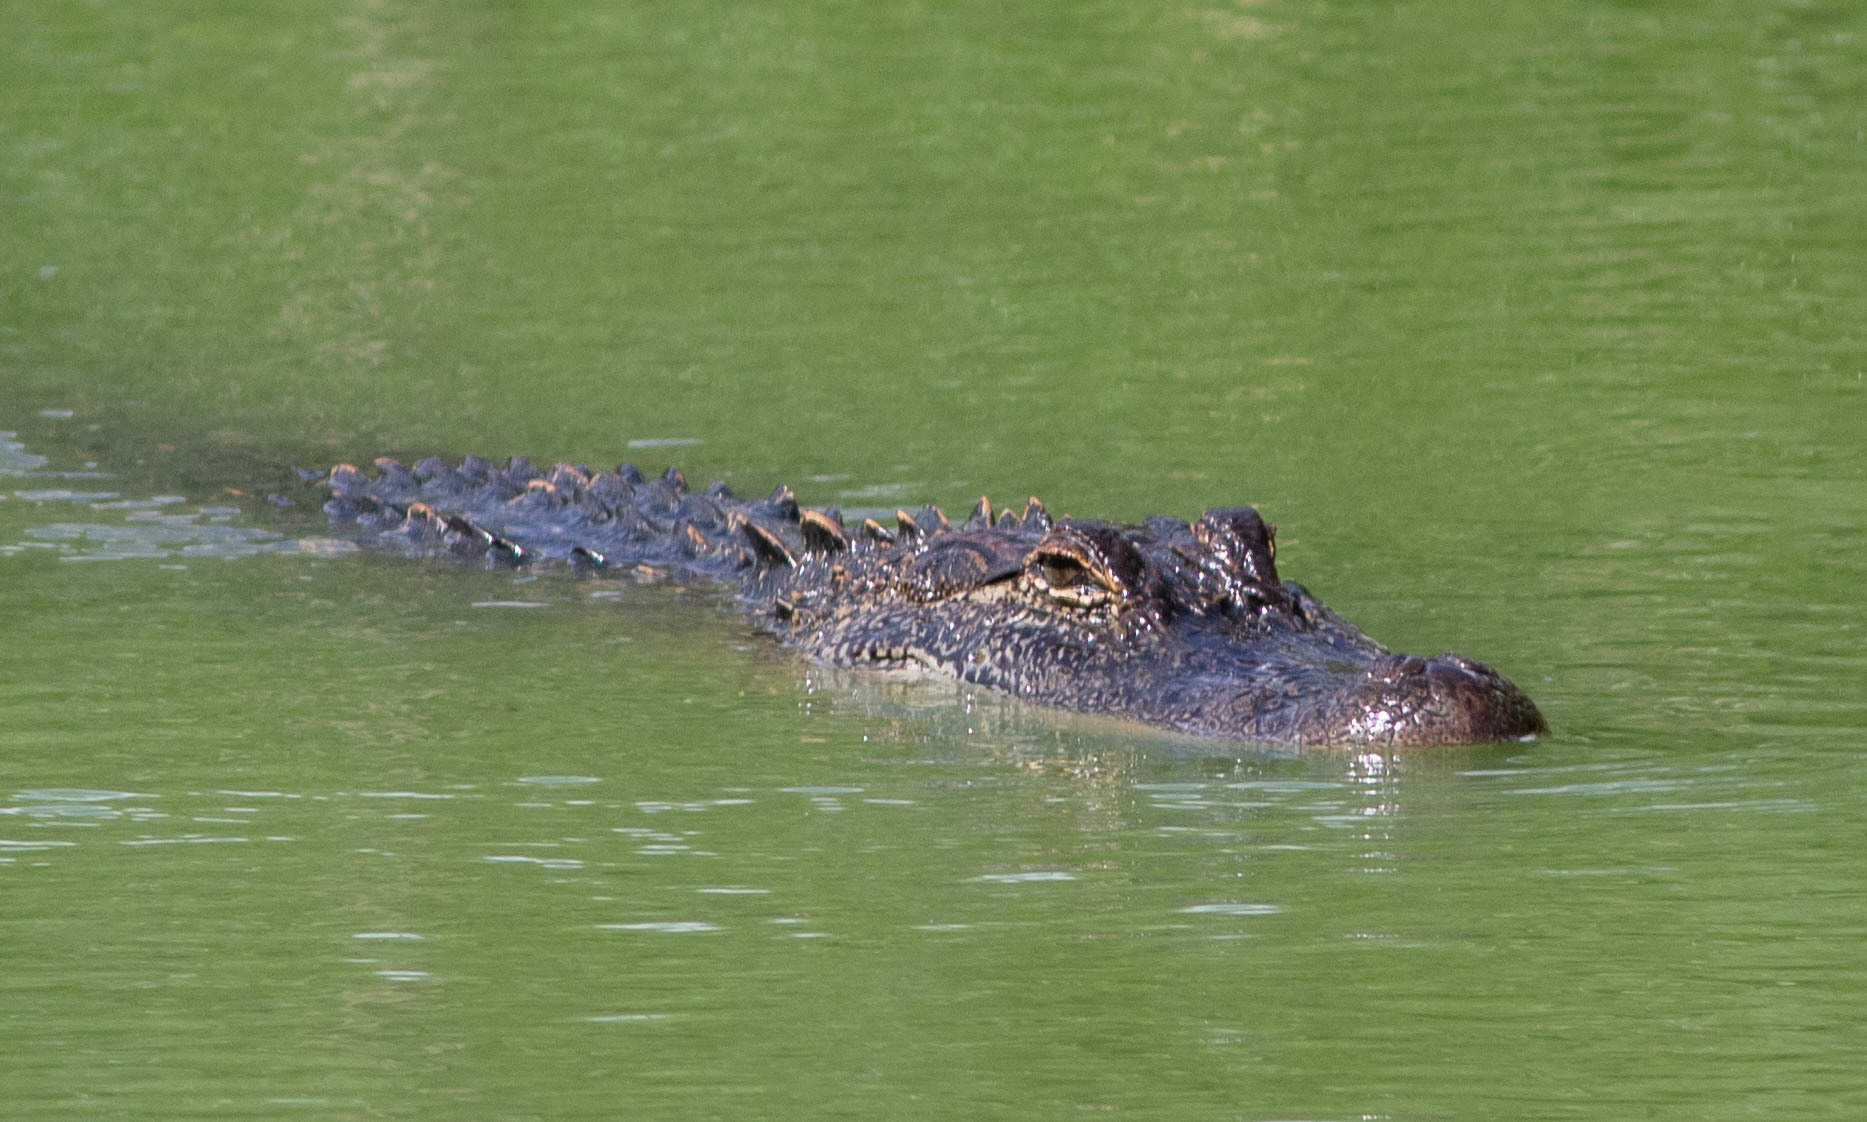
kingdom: Animalia
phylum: Chordata
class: Crocodylia
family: Alligatoridae
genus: Alligator
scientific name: Alligator mississippiensis
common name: American alligator
